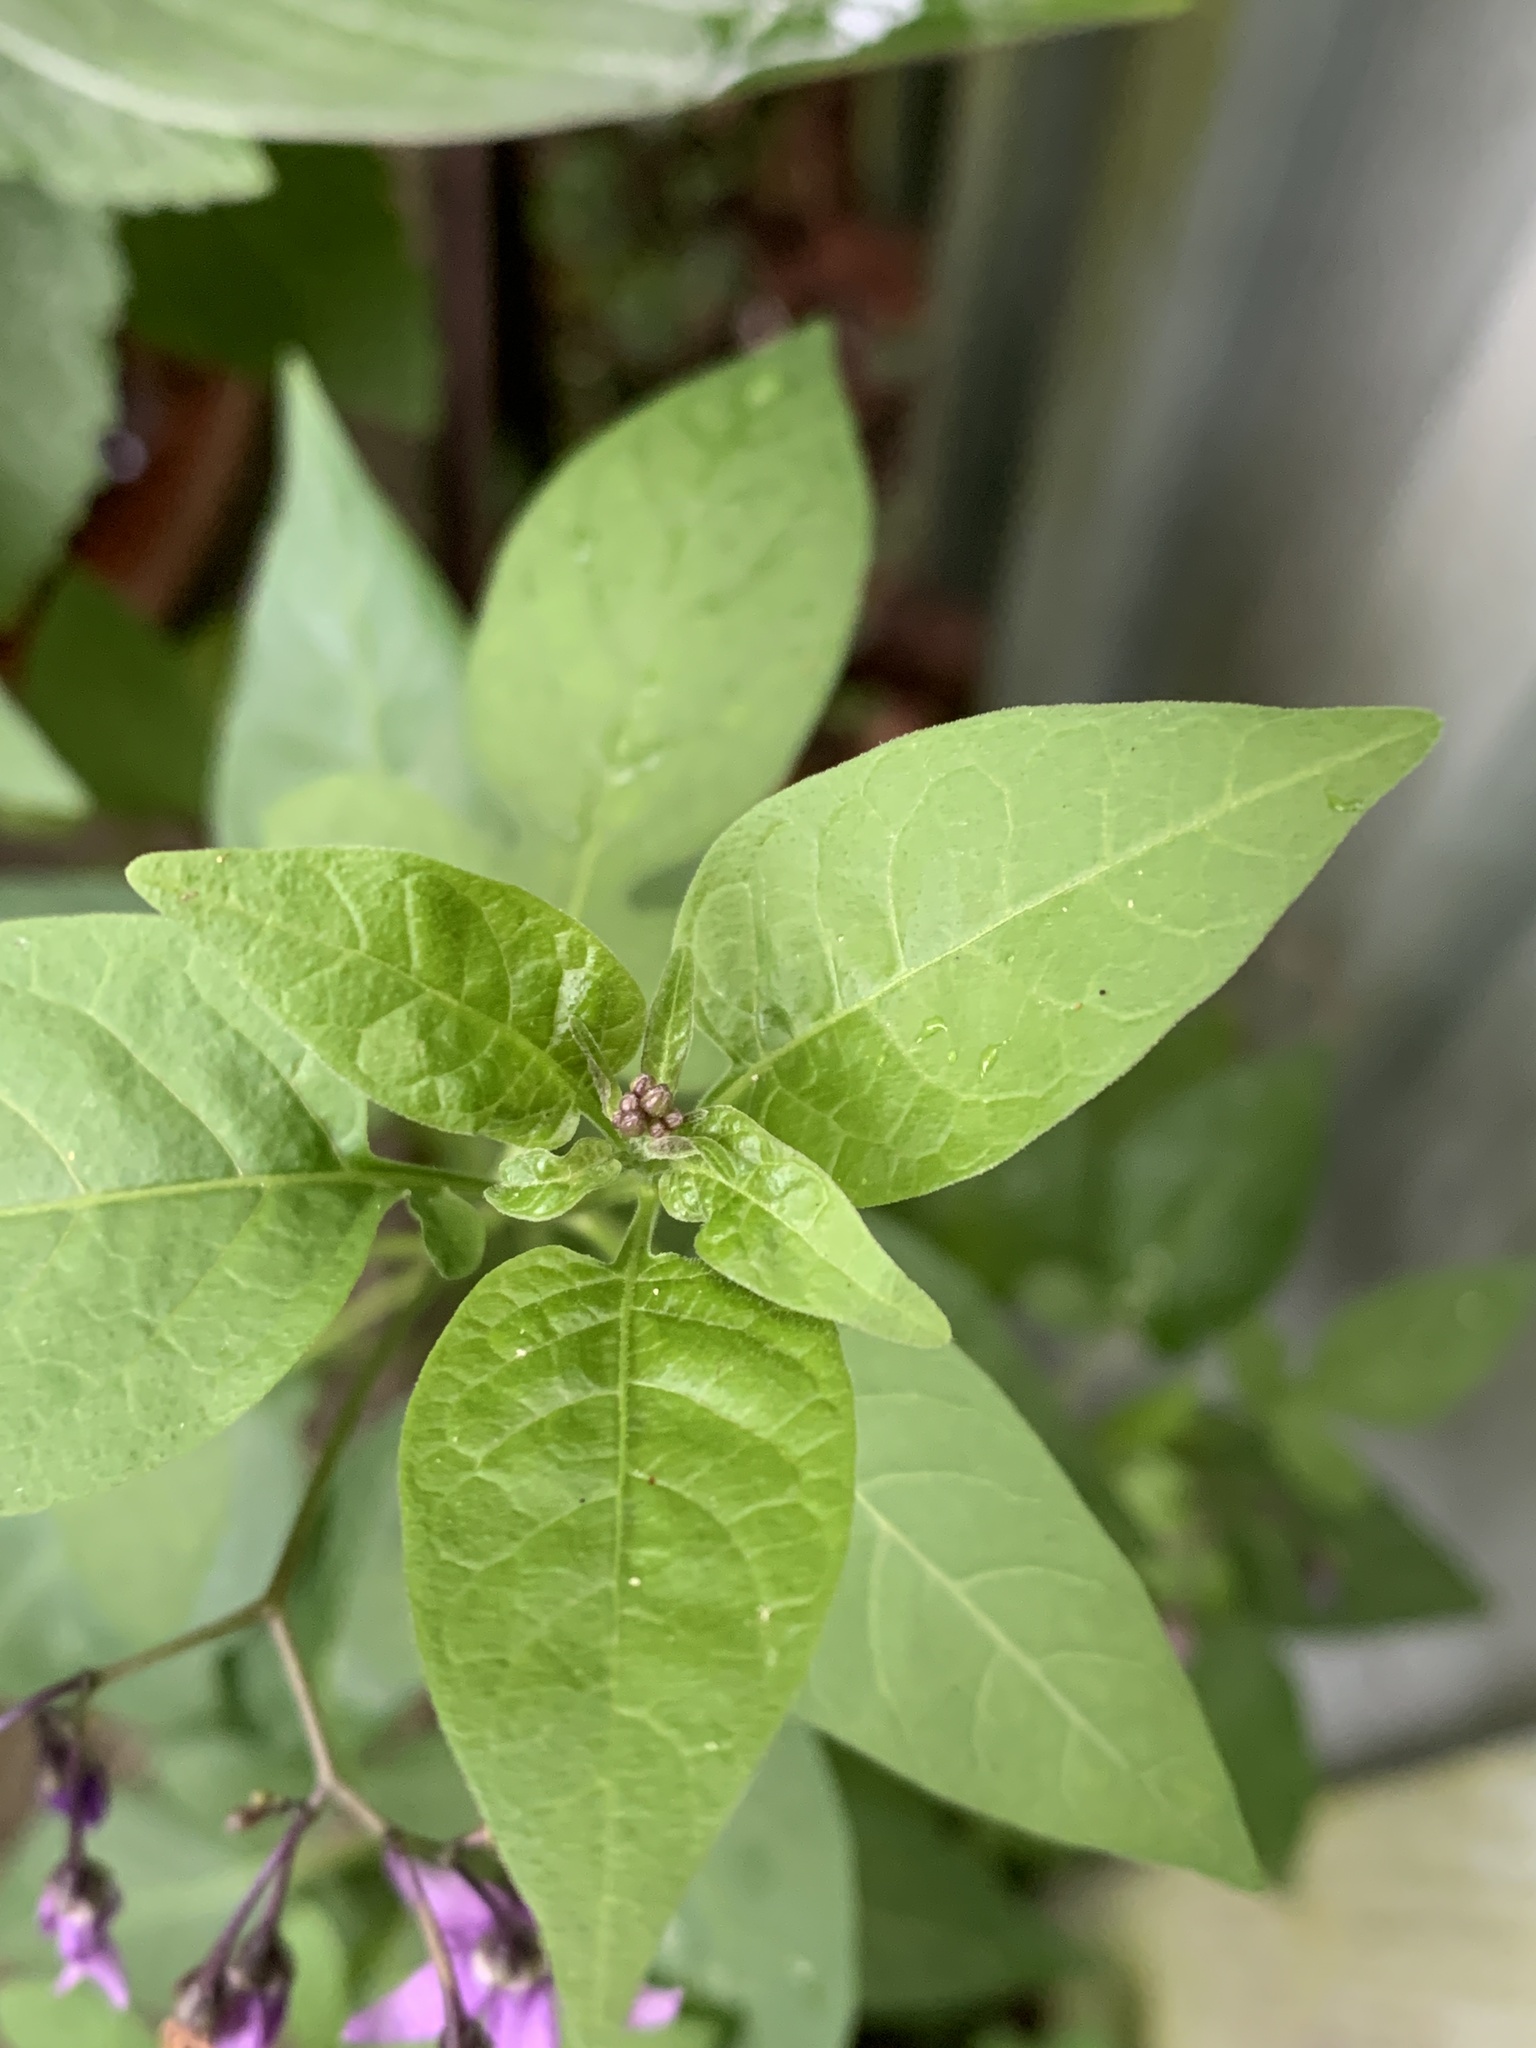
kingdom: Plantae
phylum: Tracheophyta
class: Magnoliopsida
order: Solanales
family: Solanaceae
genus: Solanum
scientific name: Solanum dulcamara
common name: Climbing nightshade
